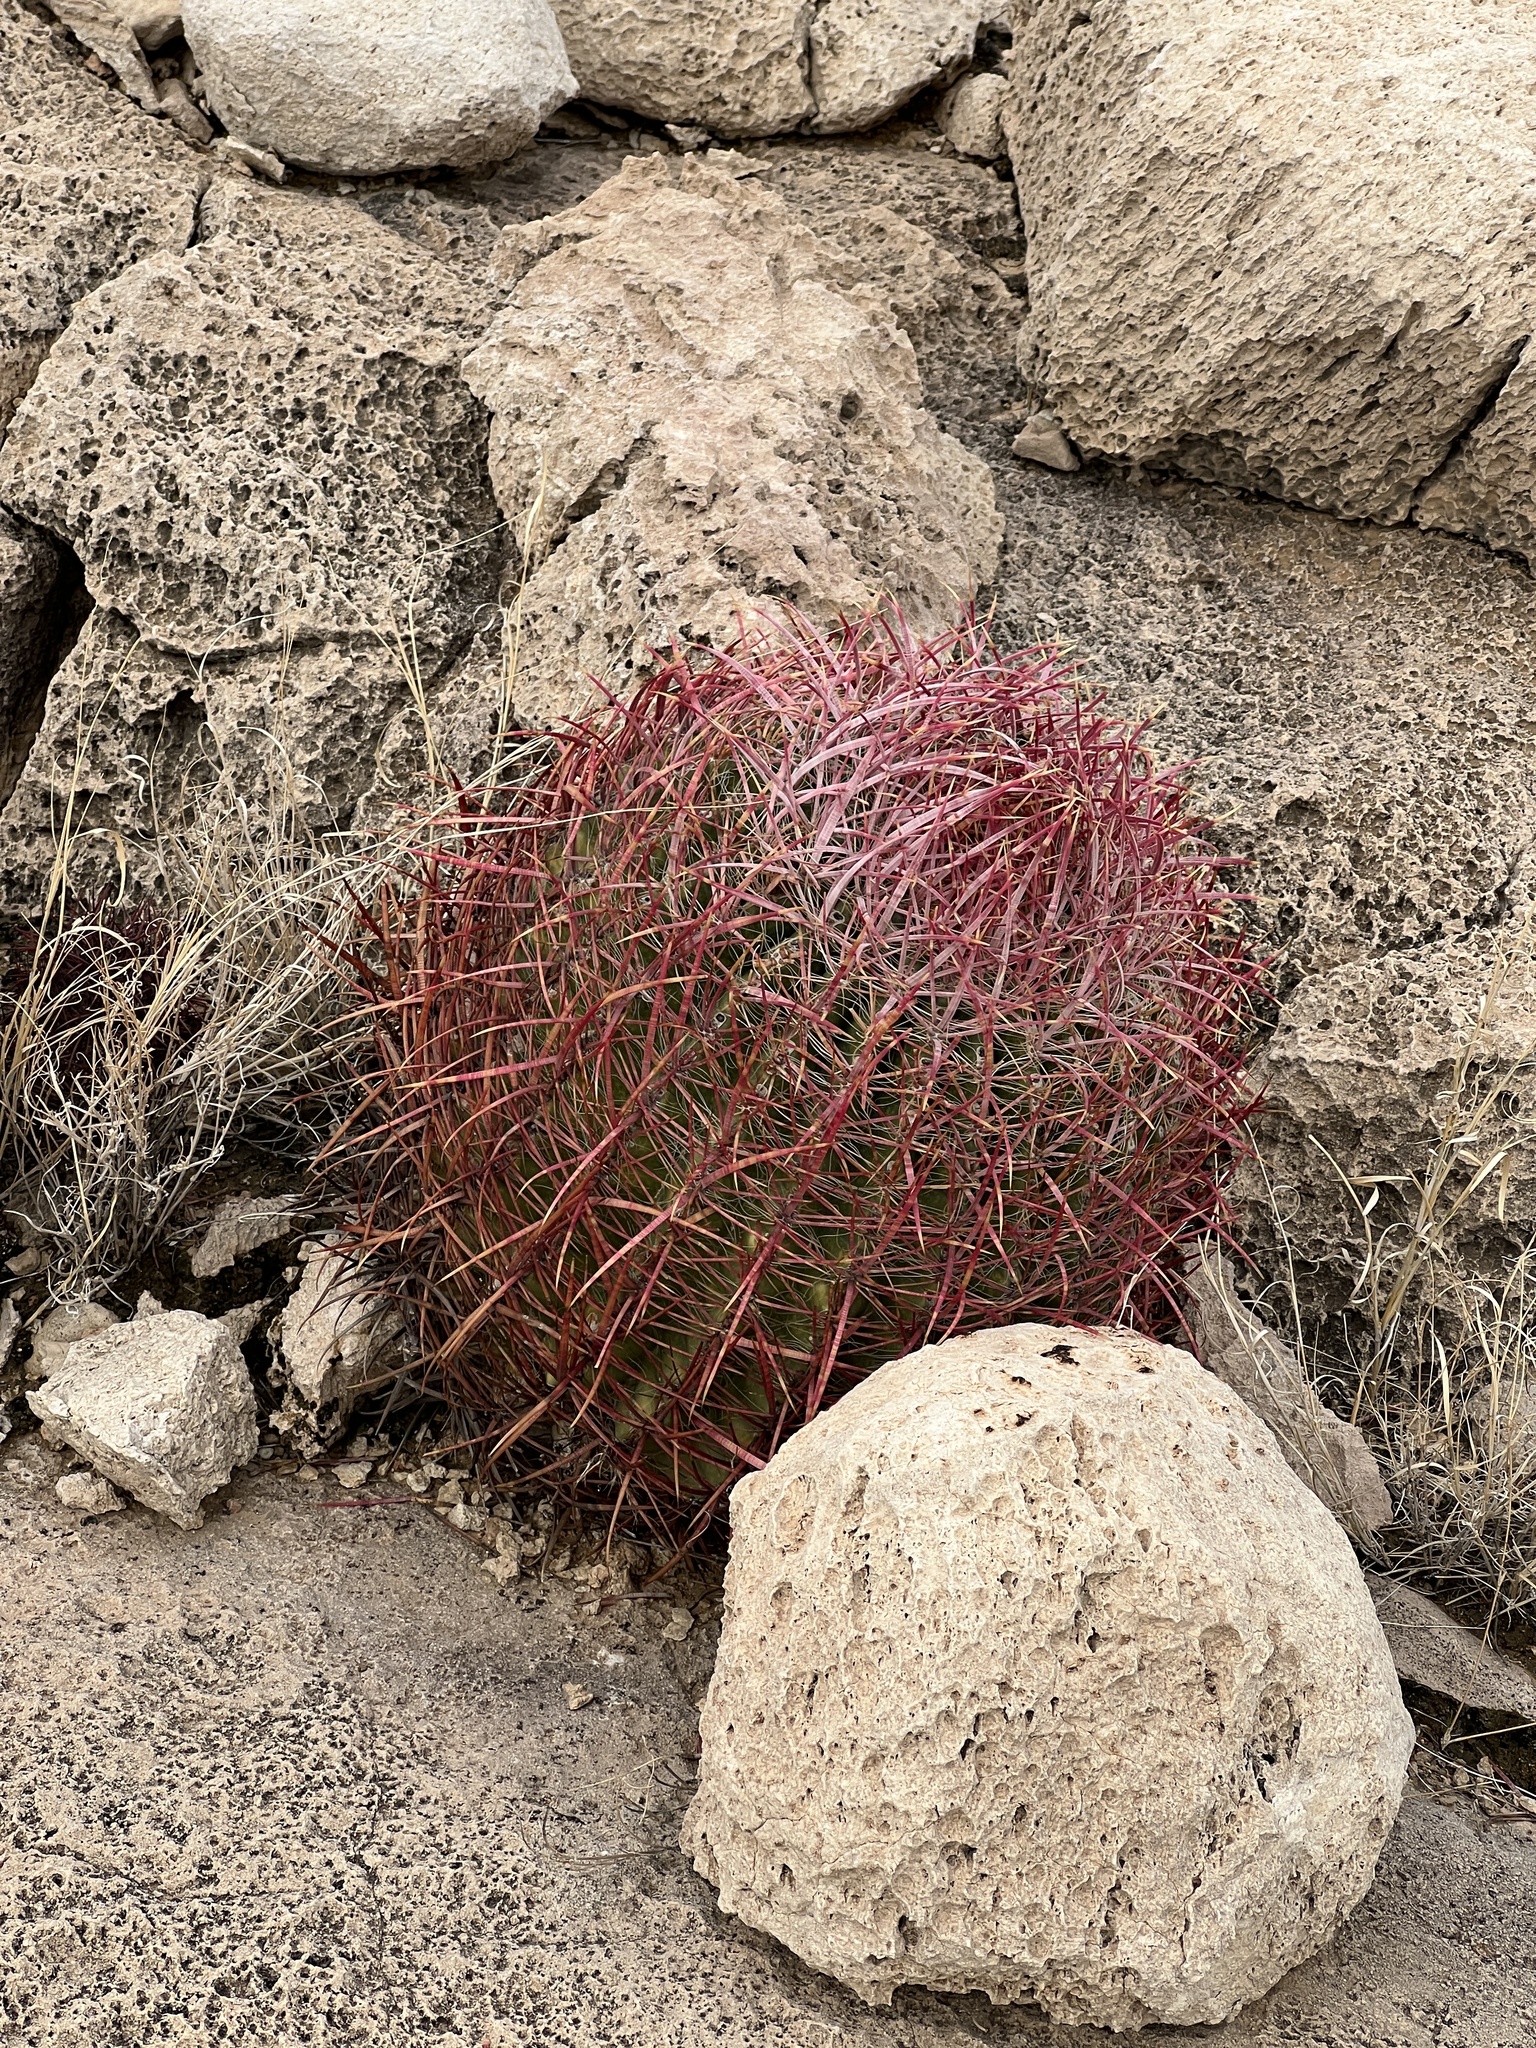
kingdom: Plantae
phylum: Tracheophyta
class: Magnoliopsida
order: Caryophyllales
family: Cactaceae
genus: Ferocactus
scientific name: Ferocactus cylindraceus
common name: California barrel cactus
